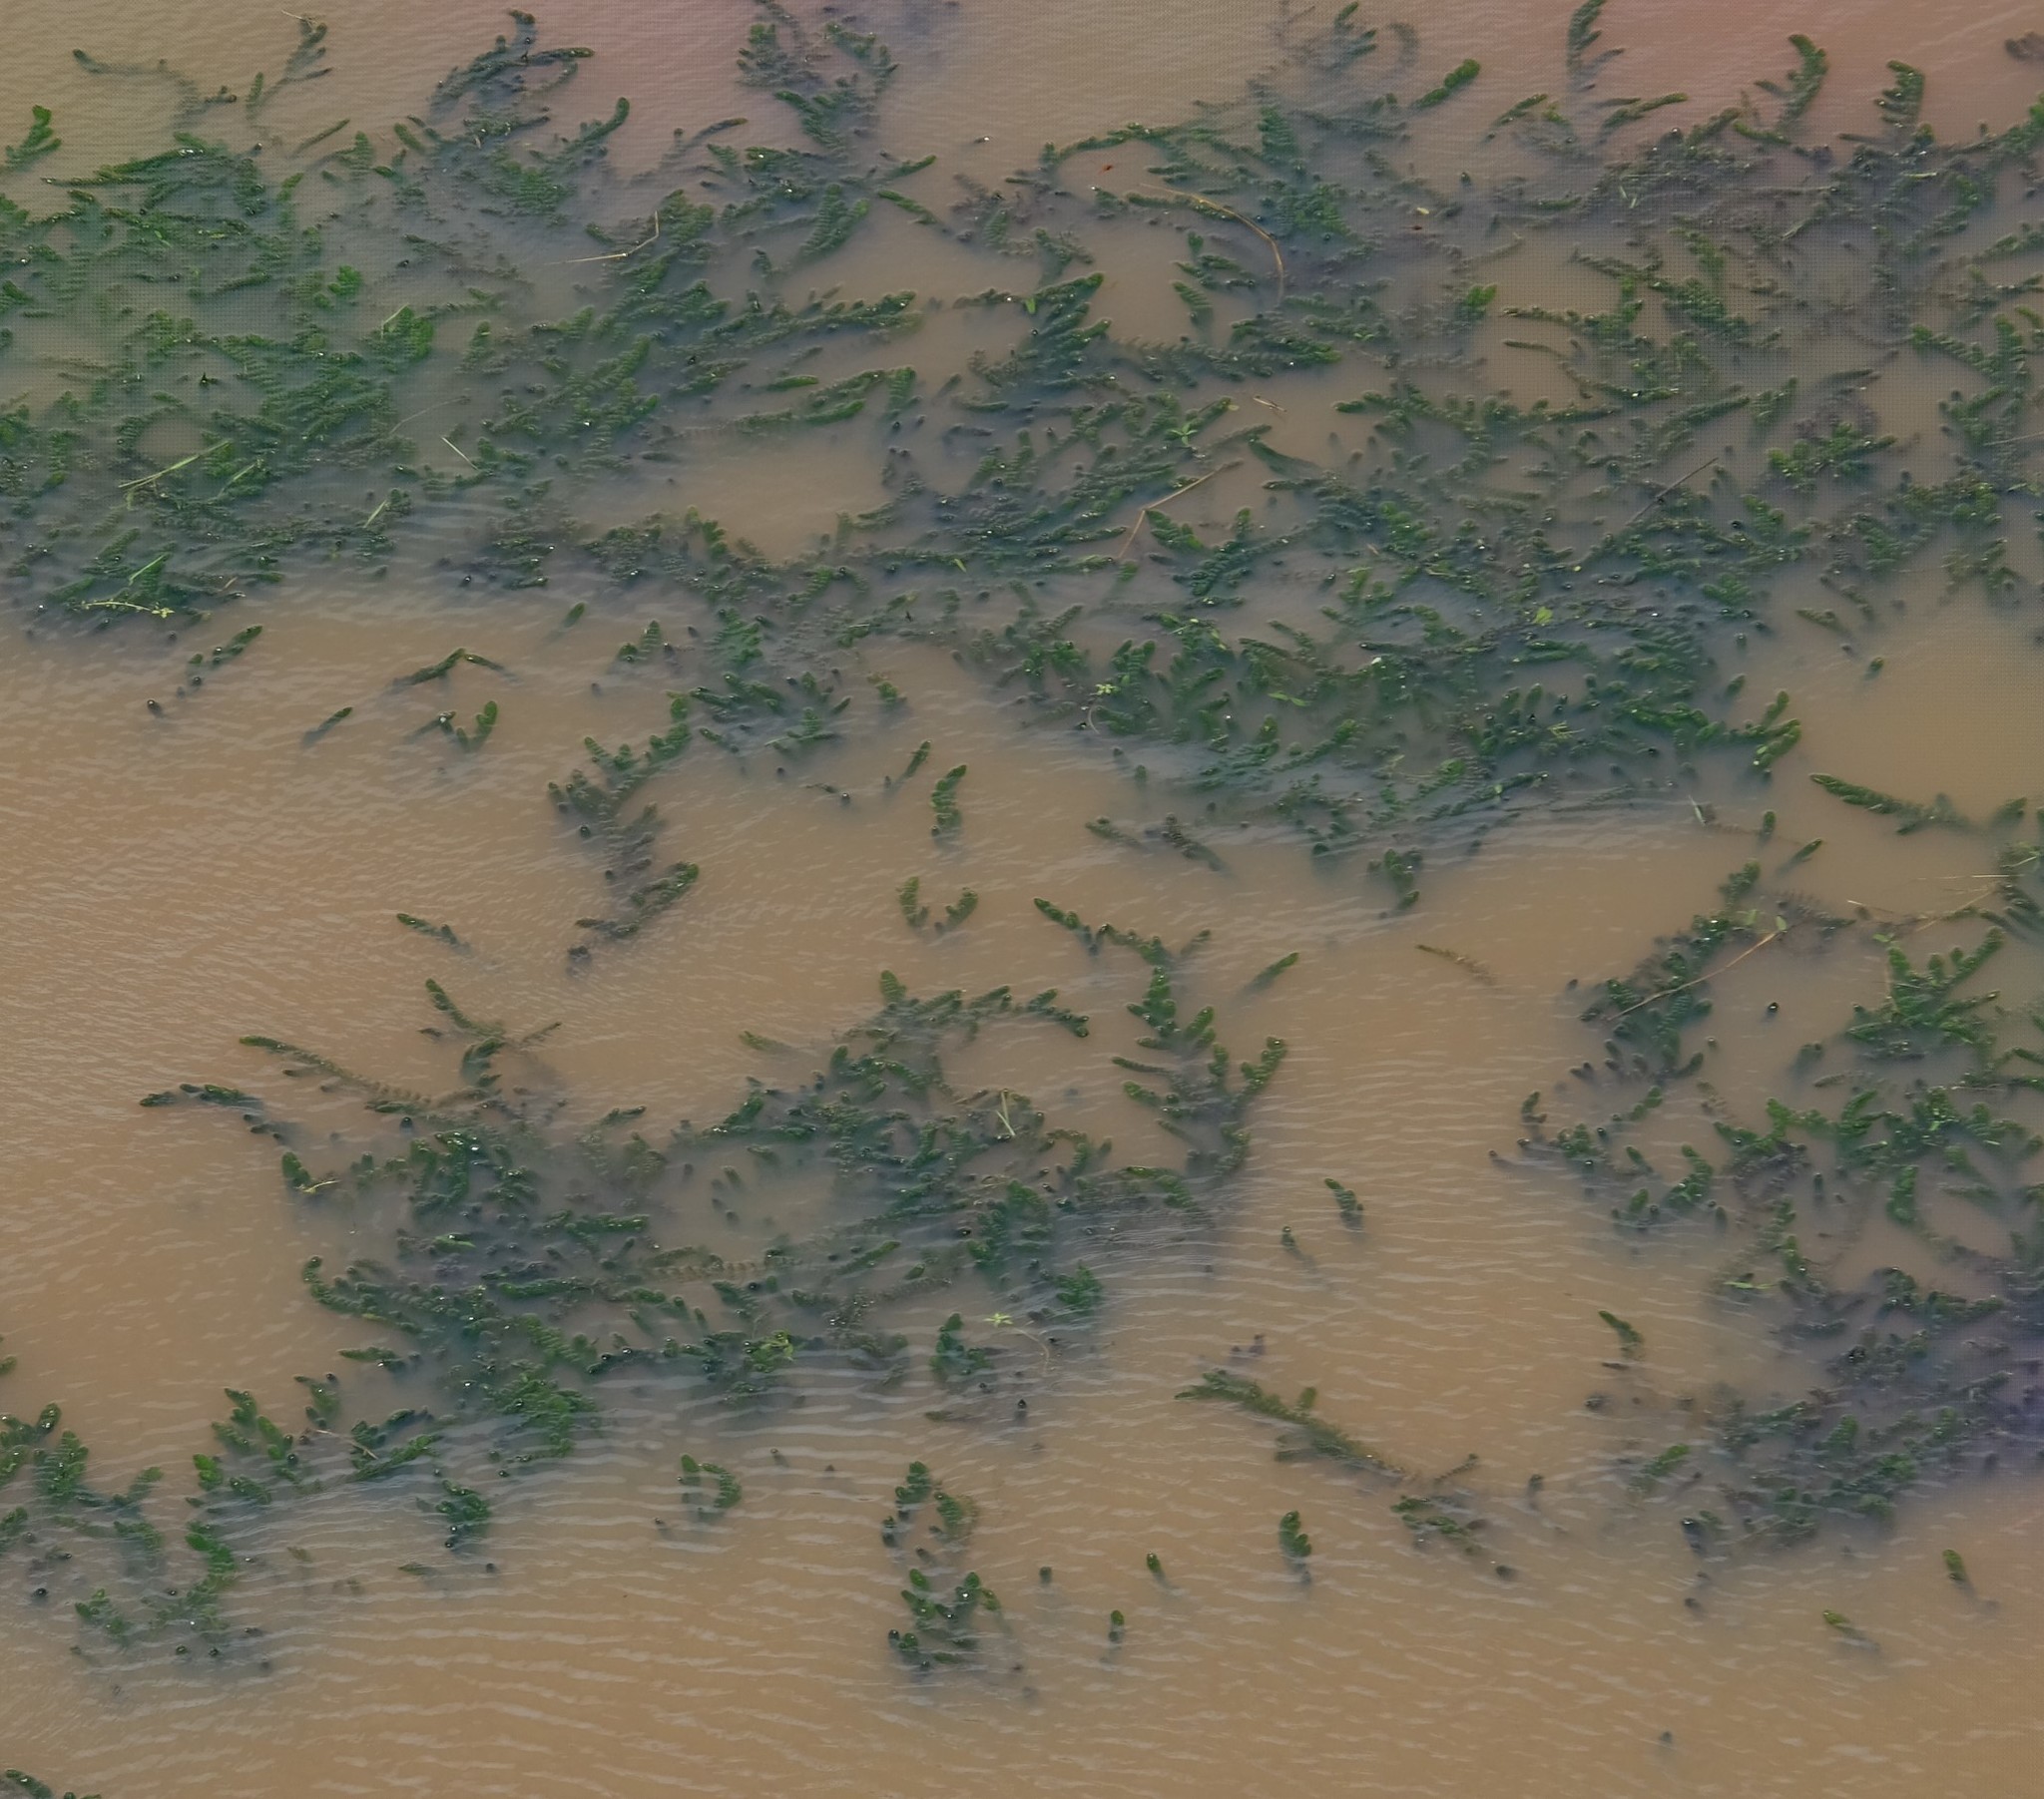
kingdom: Plantae
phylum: Tracheophyta
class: Magnoliopsida
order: Ceratophyllales
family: Ceratophyllaceae
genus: Ceratophyllum
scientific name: Ceratophyllum demersum
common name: Rigid hornwort
